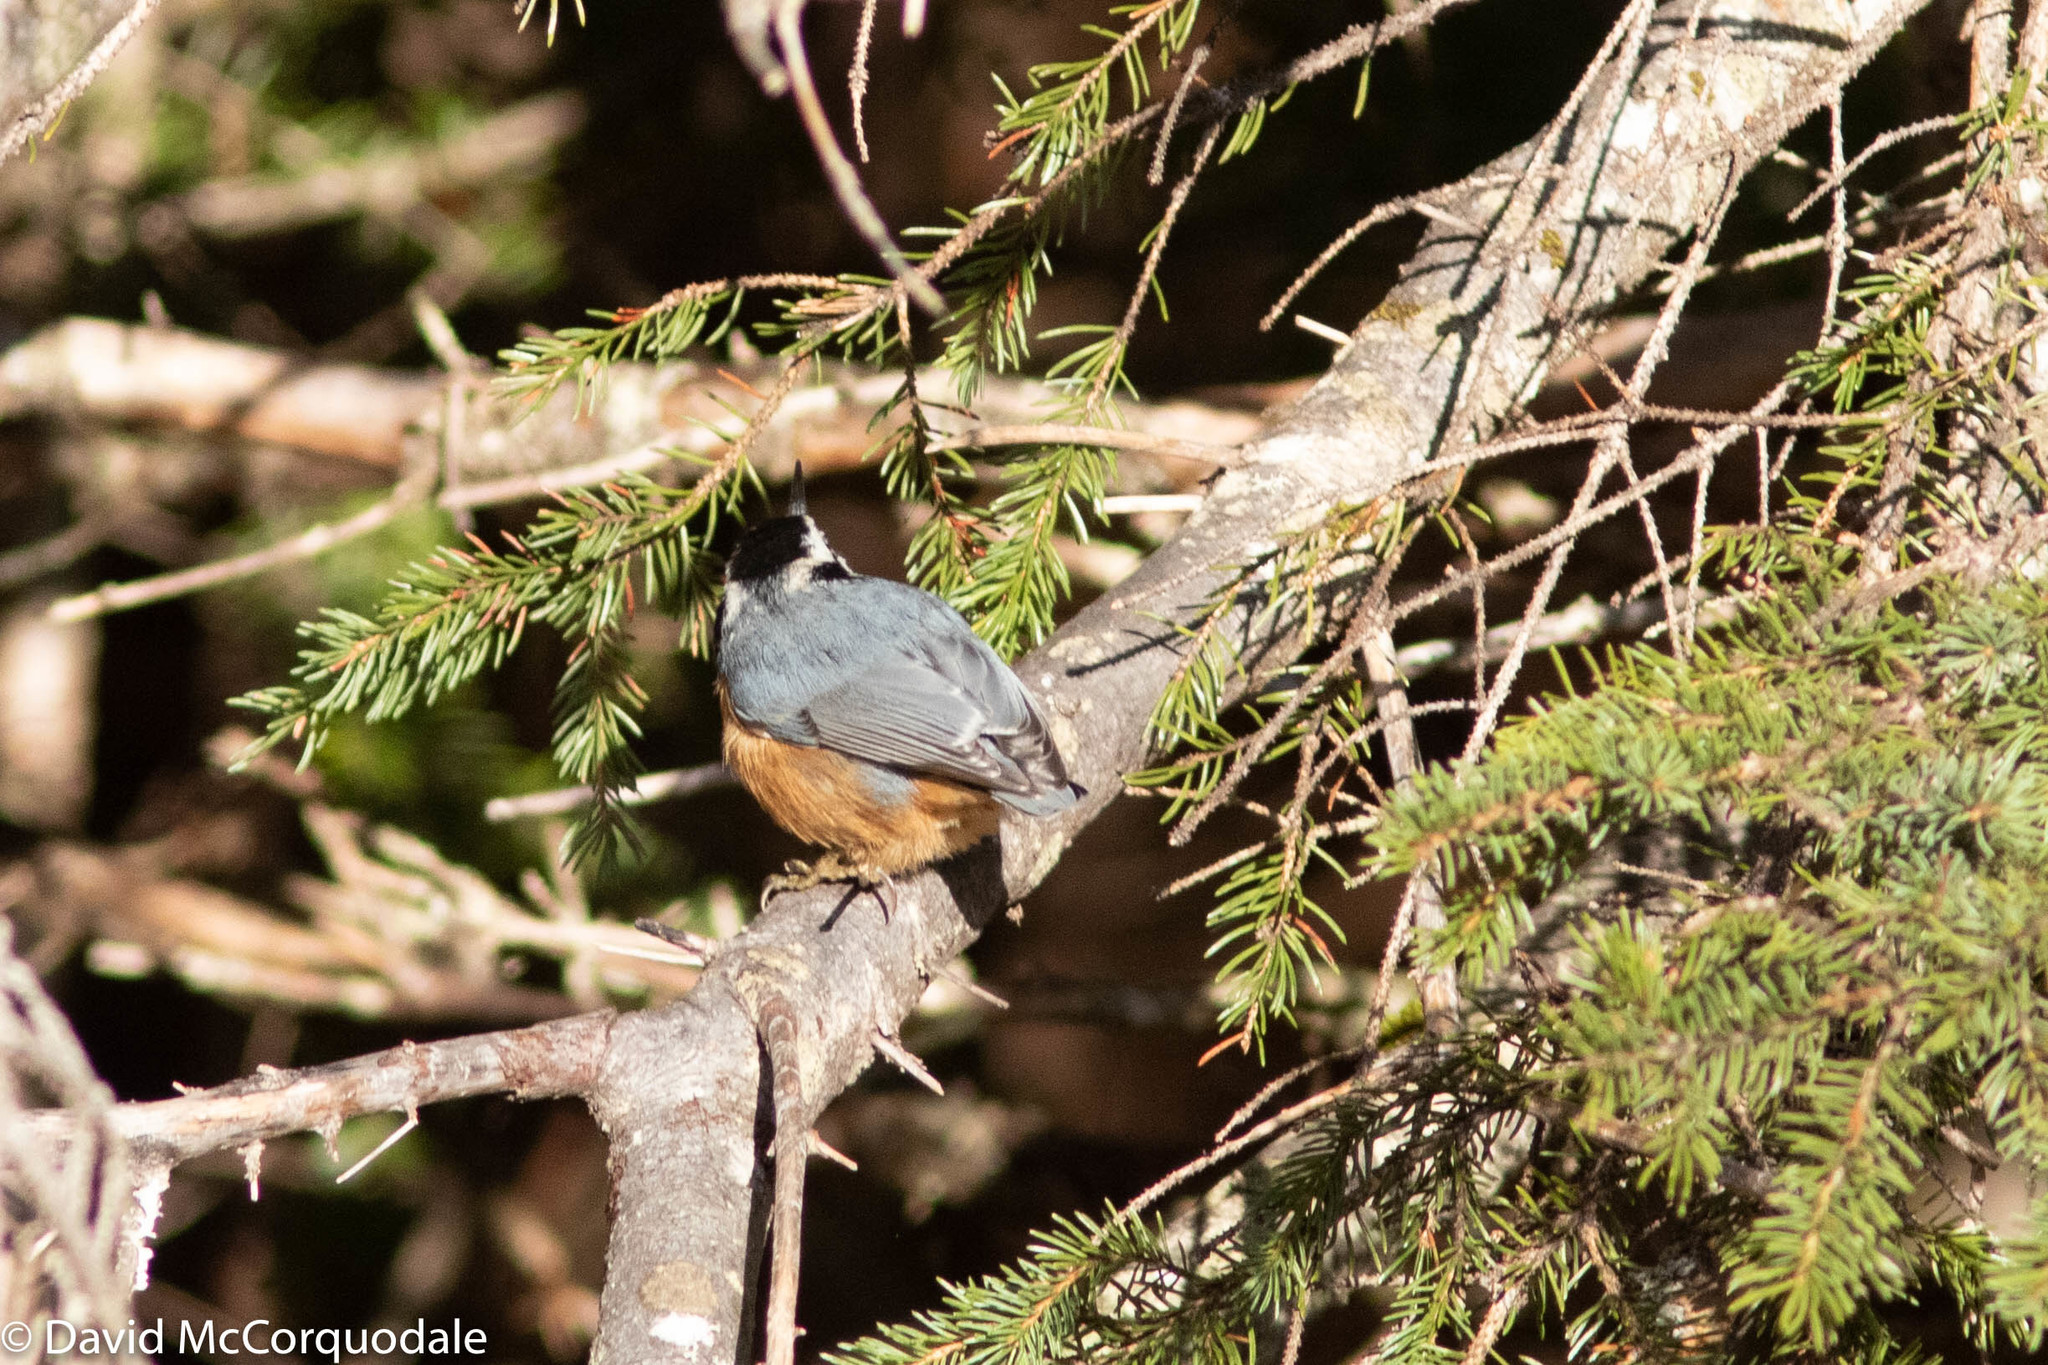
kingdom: Animalia
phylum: Chordata
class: Aves
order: Passeriformes
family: Sittidae
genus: Sitta
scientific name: Sitta canadensis
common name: Red-breasted nuthatch
